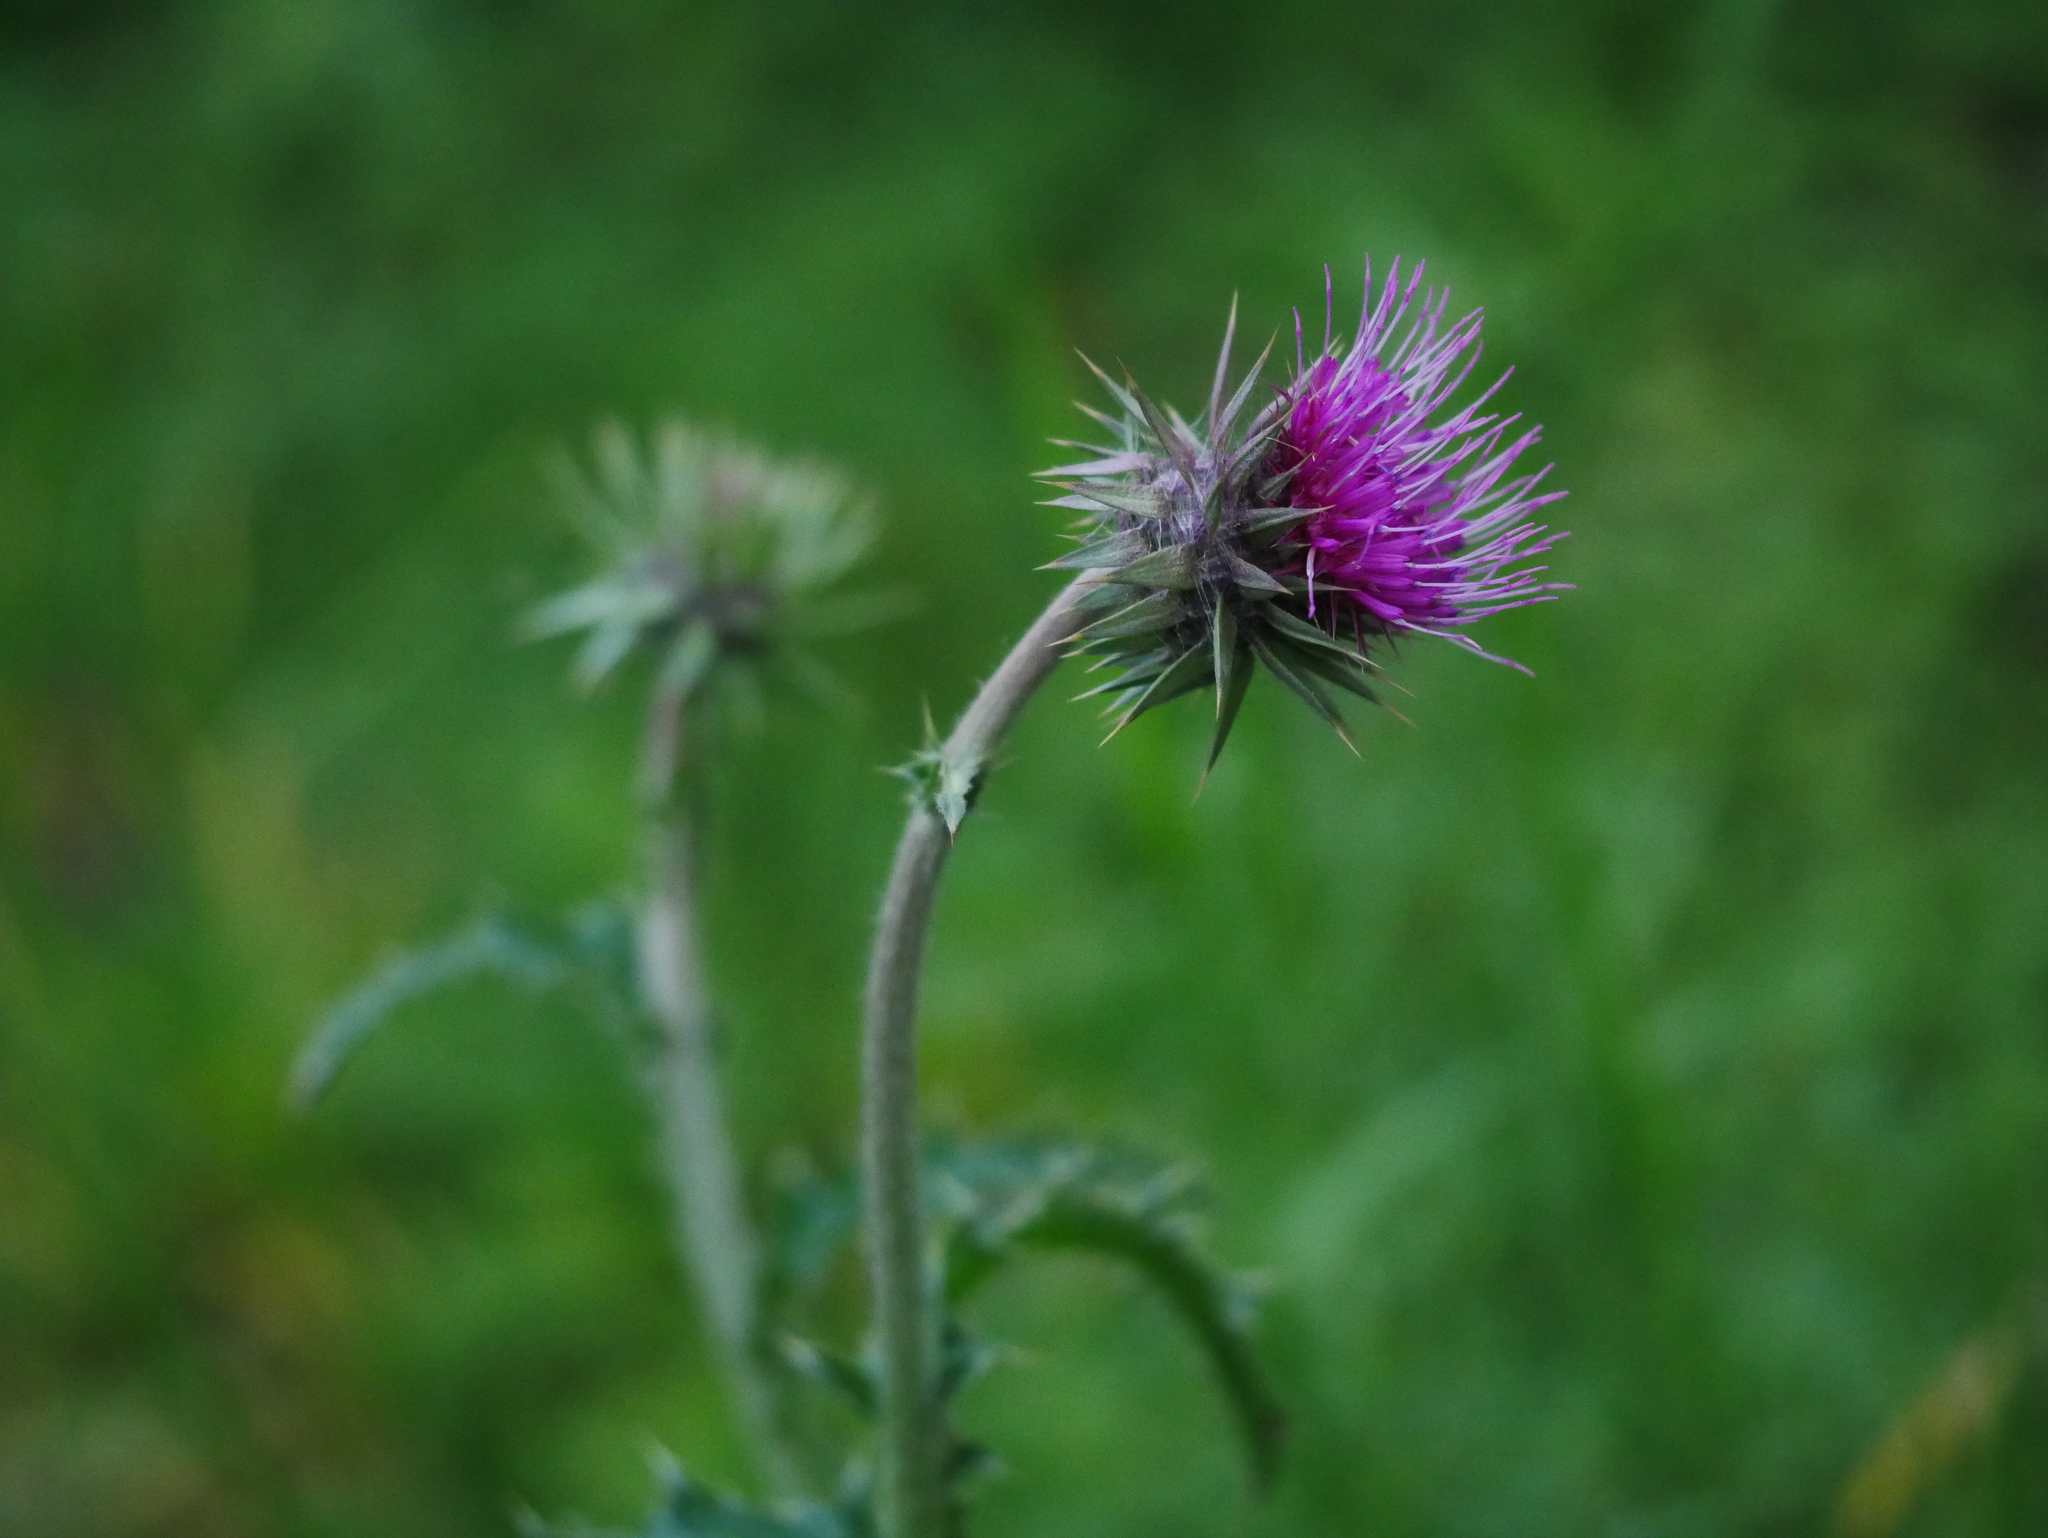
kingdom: Plantae
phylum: Tracheophyta
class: Magnoliopsida
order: Asterales
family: Asteraceae
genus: Carduus
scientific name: Carduus nutans
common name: Musk thistle
